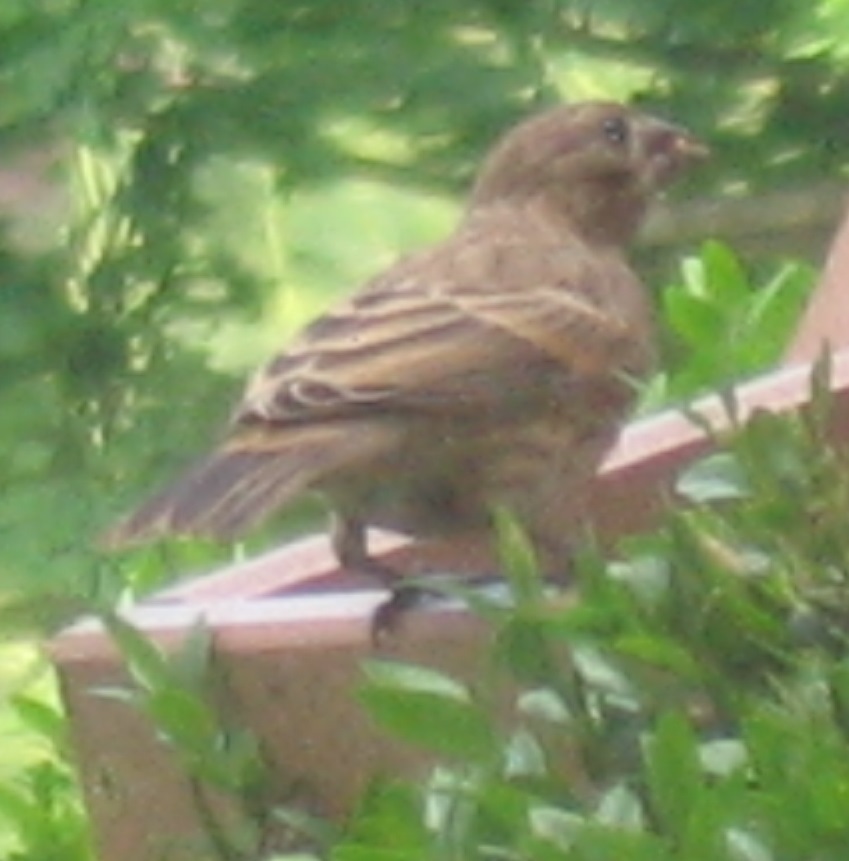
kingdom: Animalia
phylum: Chordata
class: Aves
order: Passeriformes
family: Fringillidae
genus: Haemorhous
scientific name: Haemorhous mexicanus
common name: House finch
